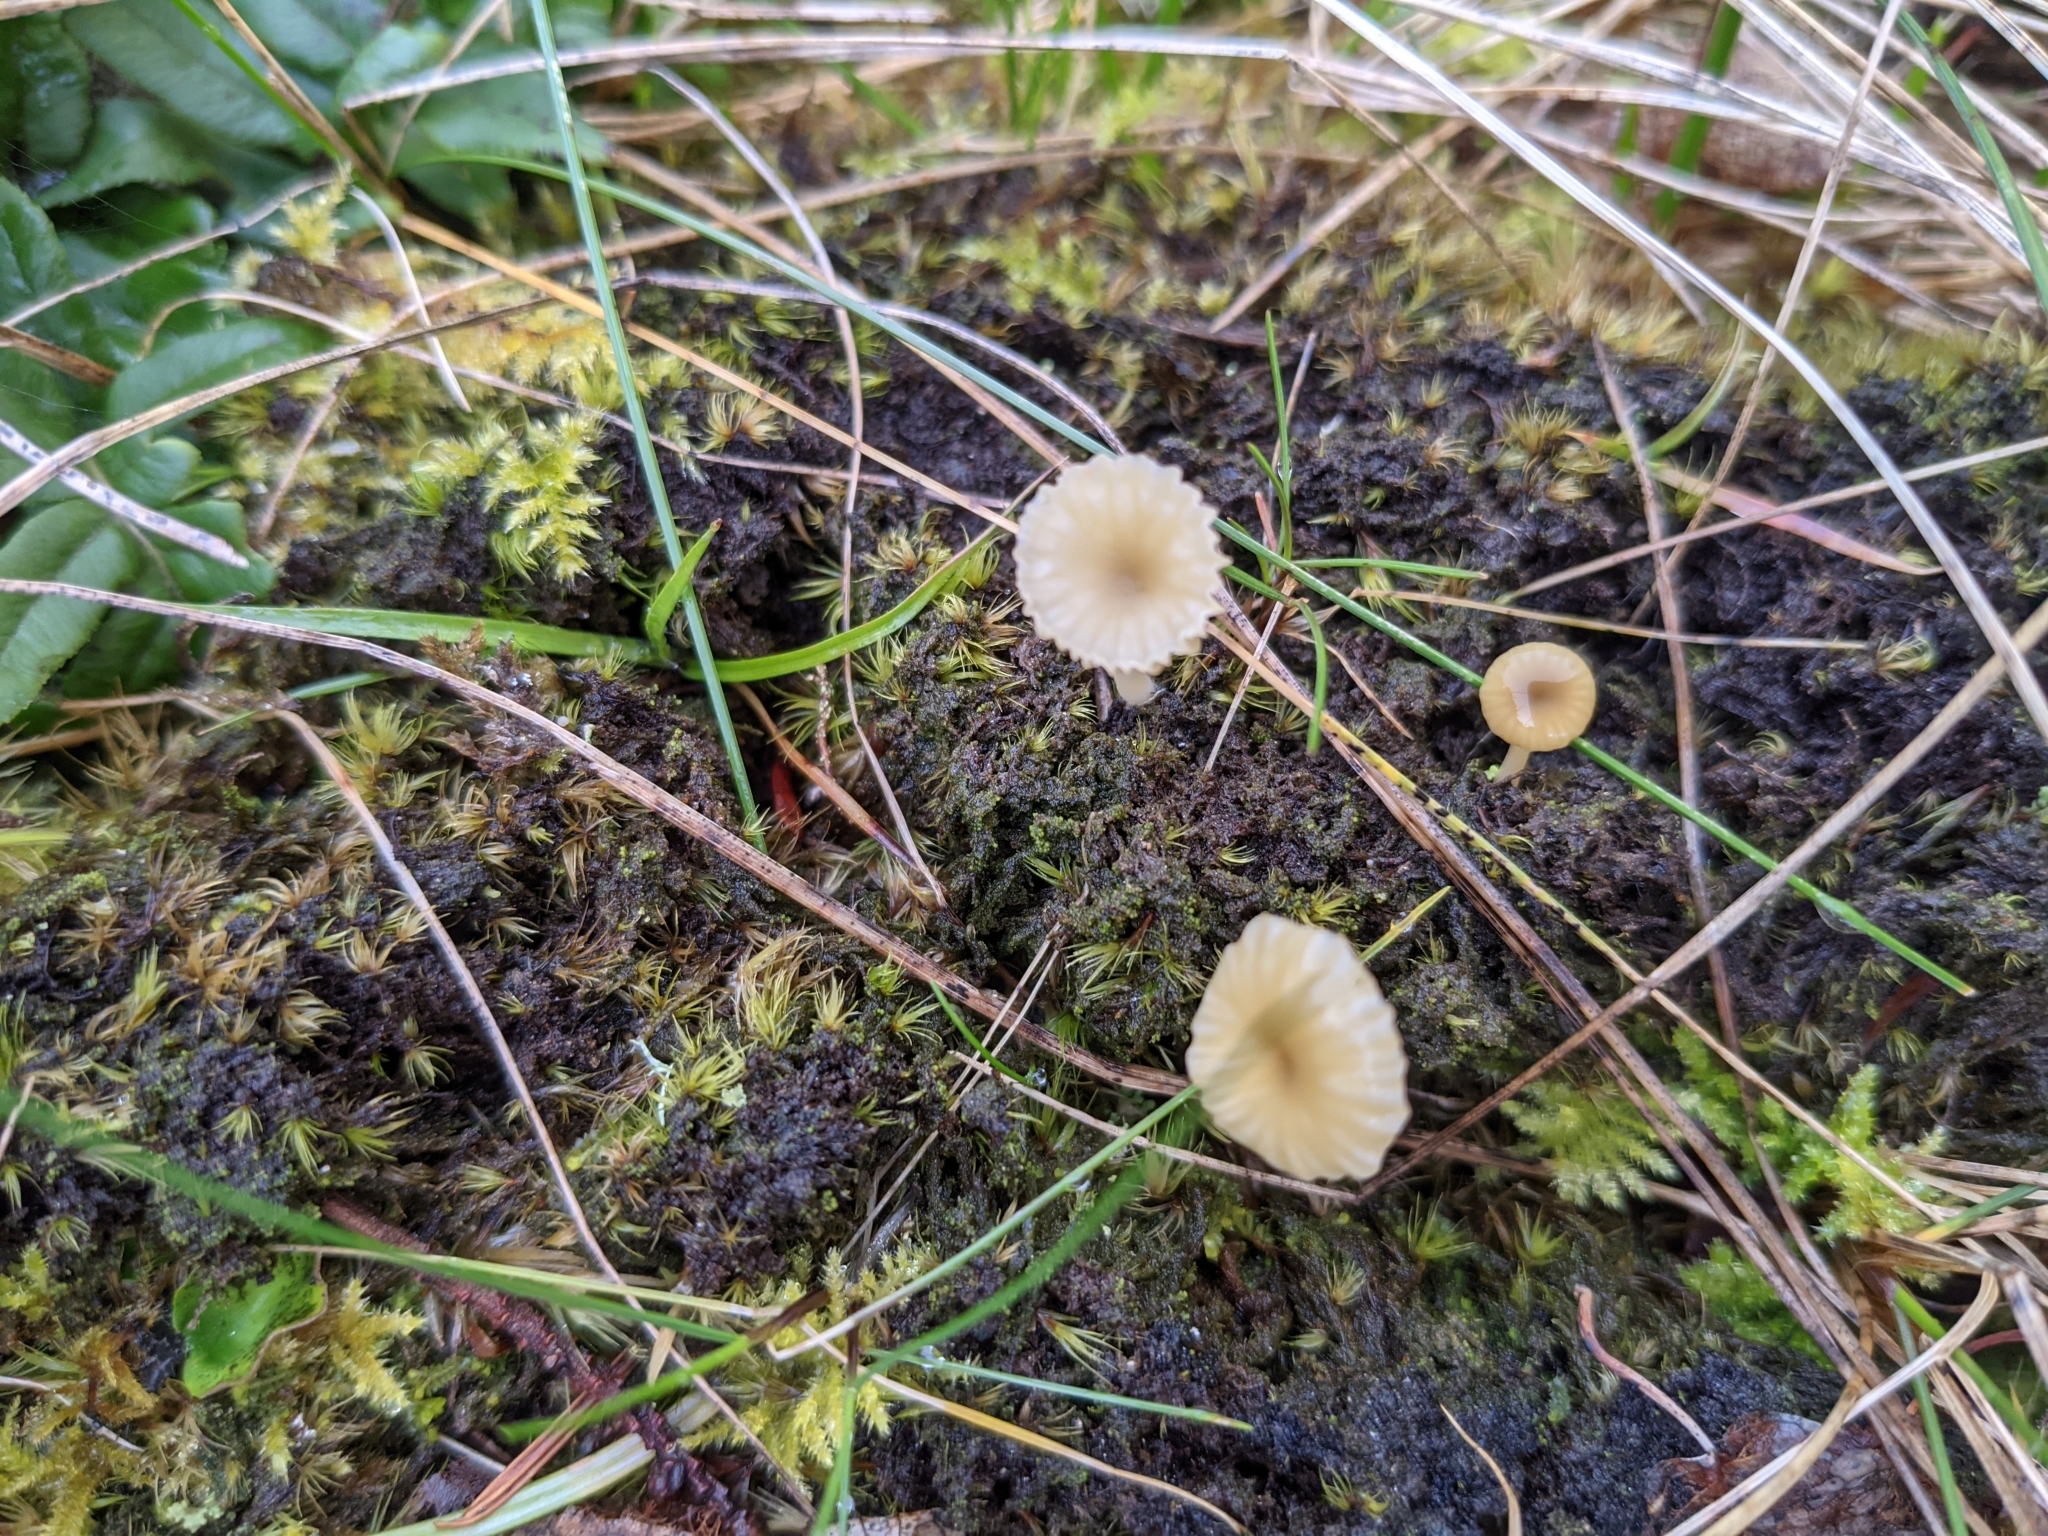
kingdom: Fungi
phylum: Basidiomycota
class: Agaricomycetes
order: Agaricales
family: Hygrophoraceae
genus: Lichenomphalia
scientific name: Lichenomphalia
